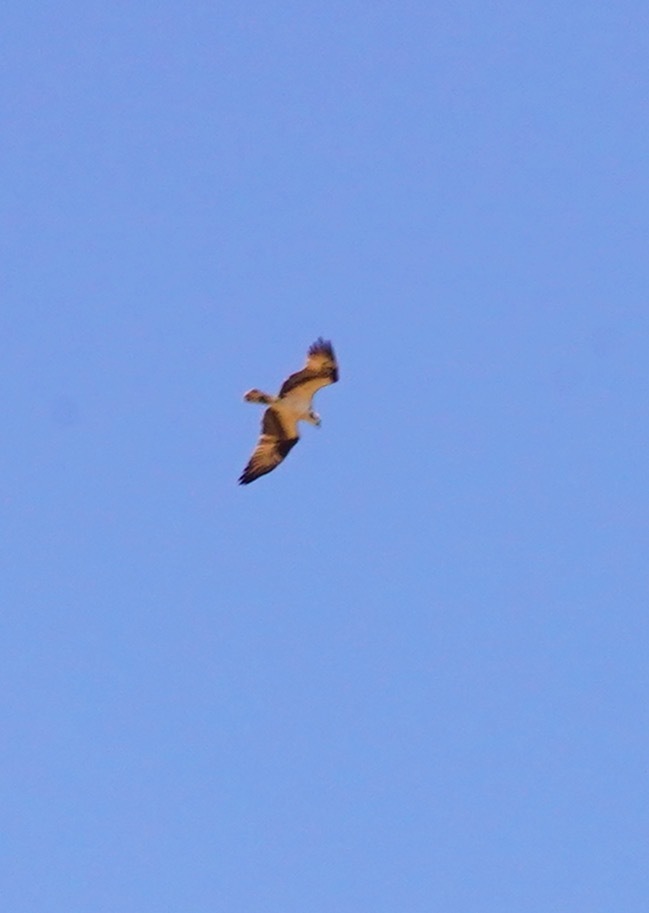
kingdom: Animalia
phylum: Chordata
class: Aves
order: Accipitriformes
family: Pandionidae
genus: Pandion
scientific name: Pandion haliaetus
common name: Osprey
